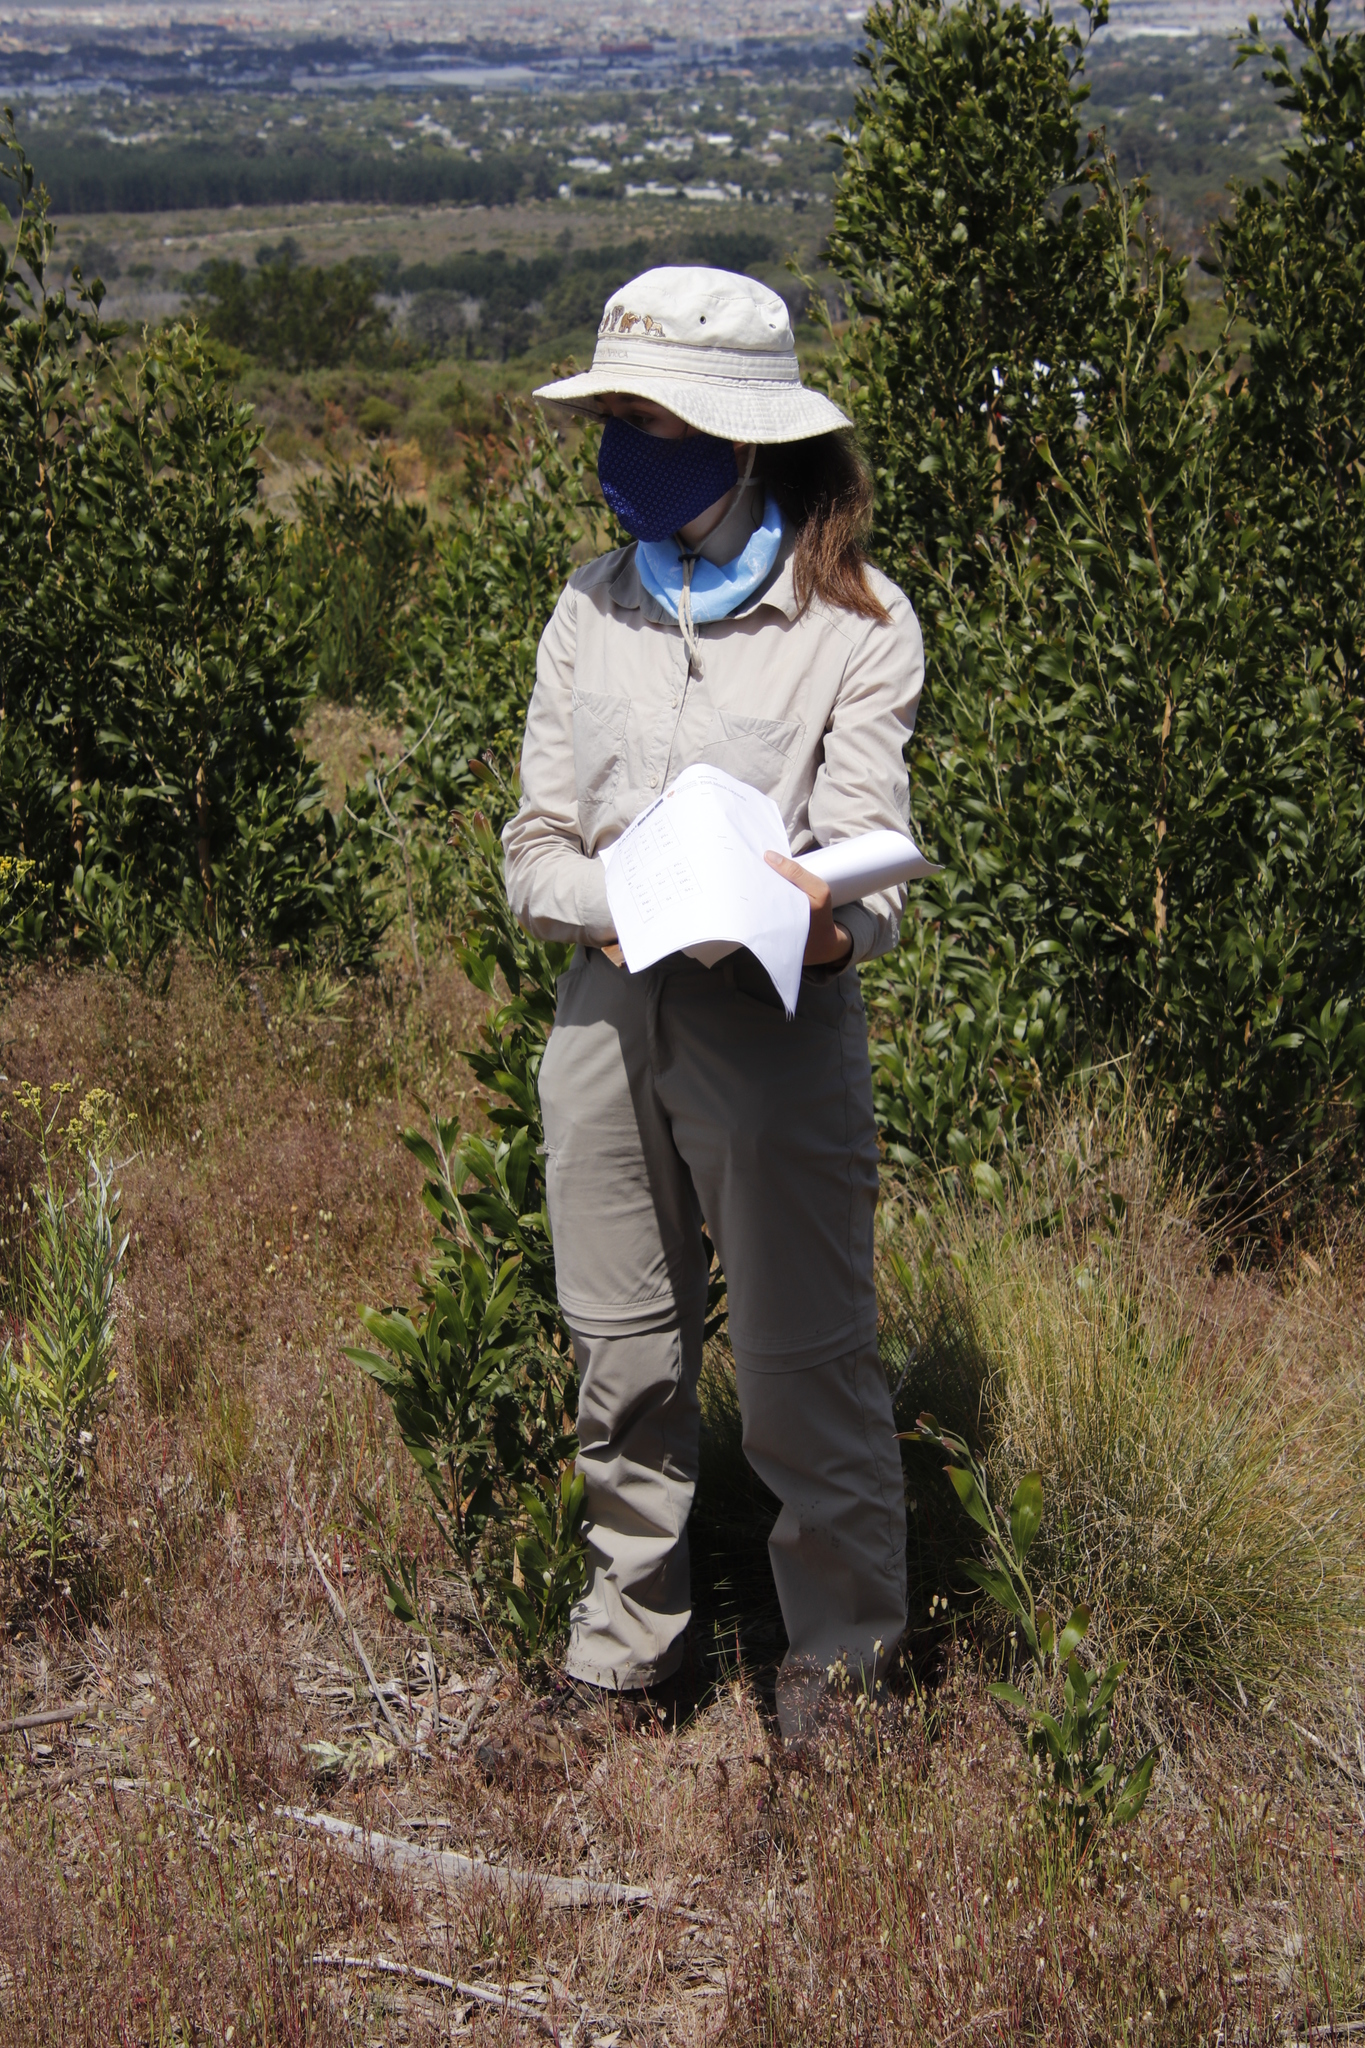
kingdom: Plantae
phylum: Tracheophyta
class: Magnoliopsida
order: Fabales
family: Fabaceae
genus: Acacia
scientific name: Acacia melanoxylon
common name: Blackwood
